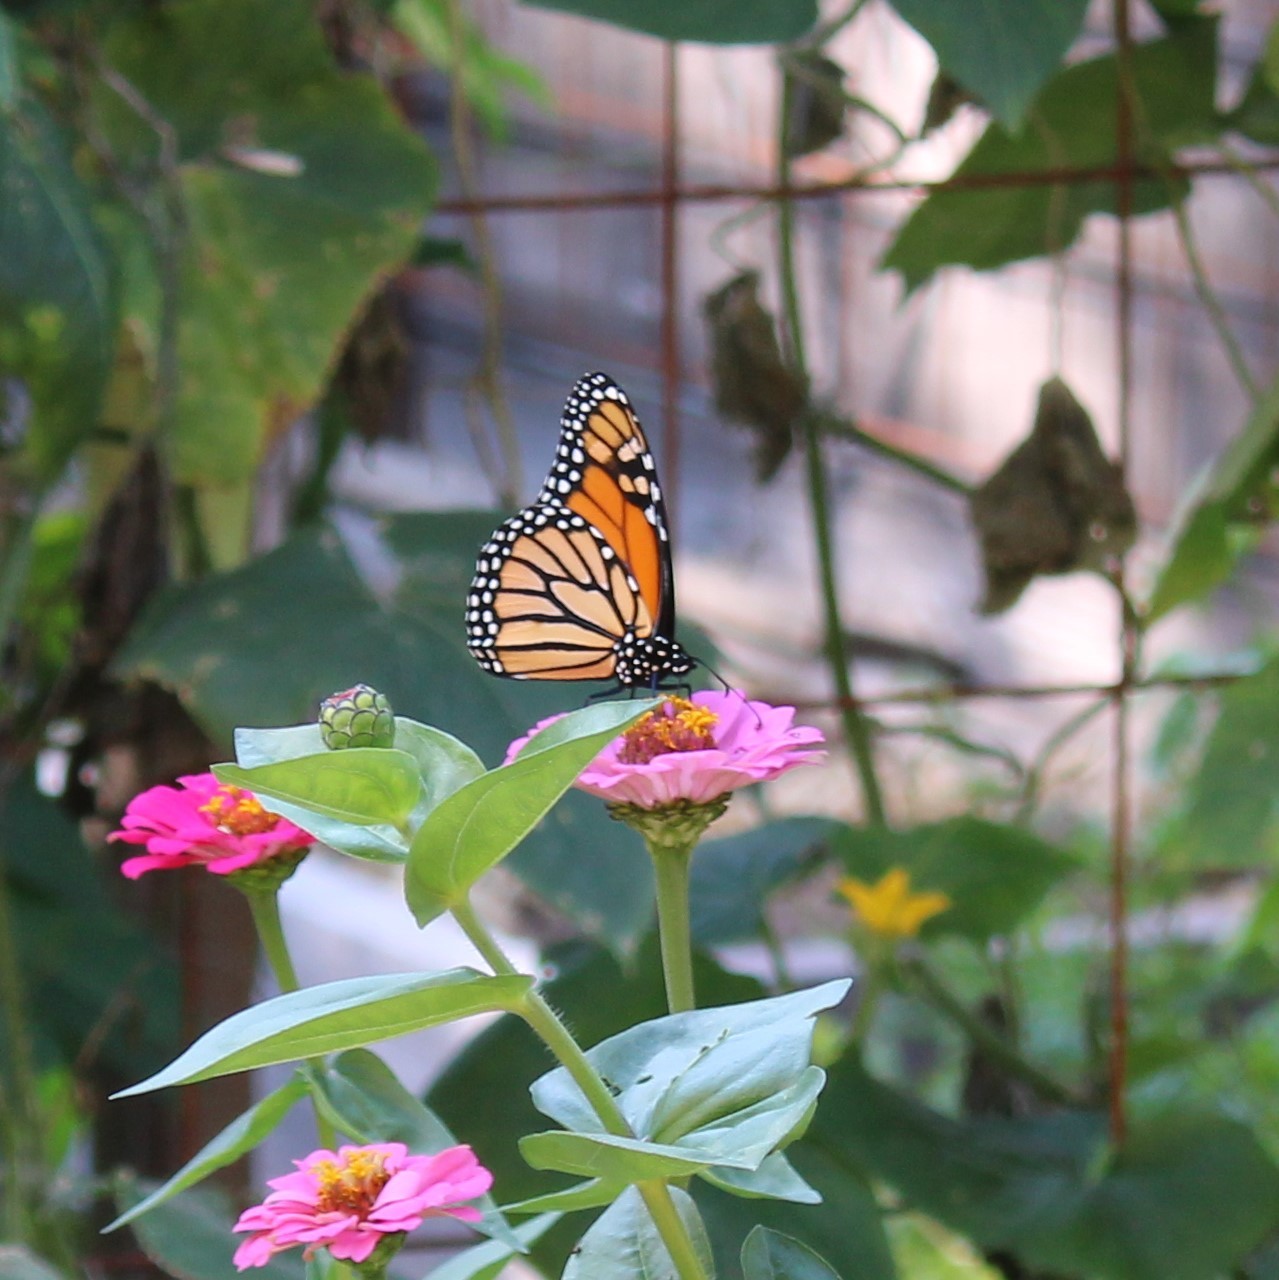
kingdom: Animalia
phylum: Arthropoda
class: Insecta
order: Lepidoptera
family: Nymphalidae
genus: Danaus
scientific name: Danaus plexippus
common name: Monarch
